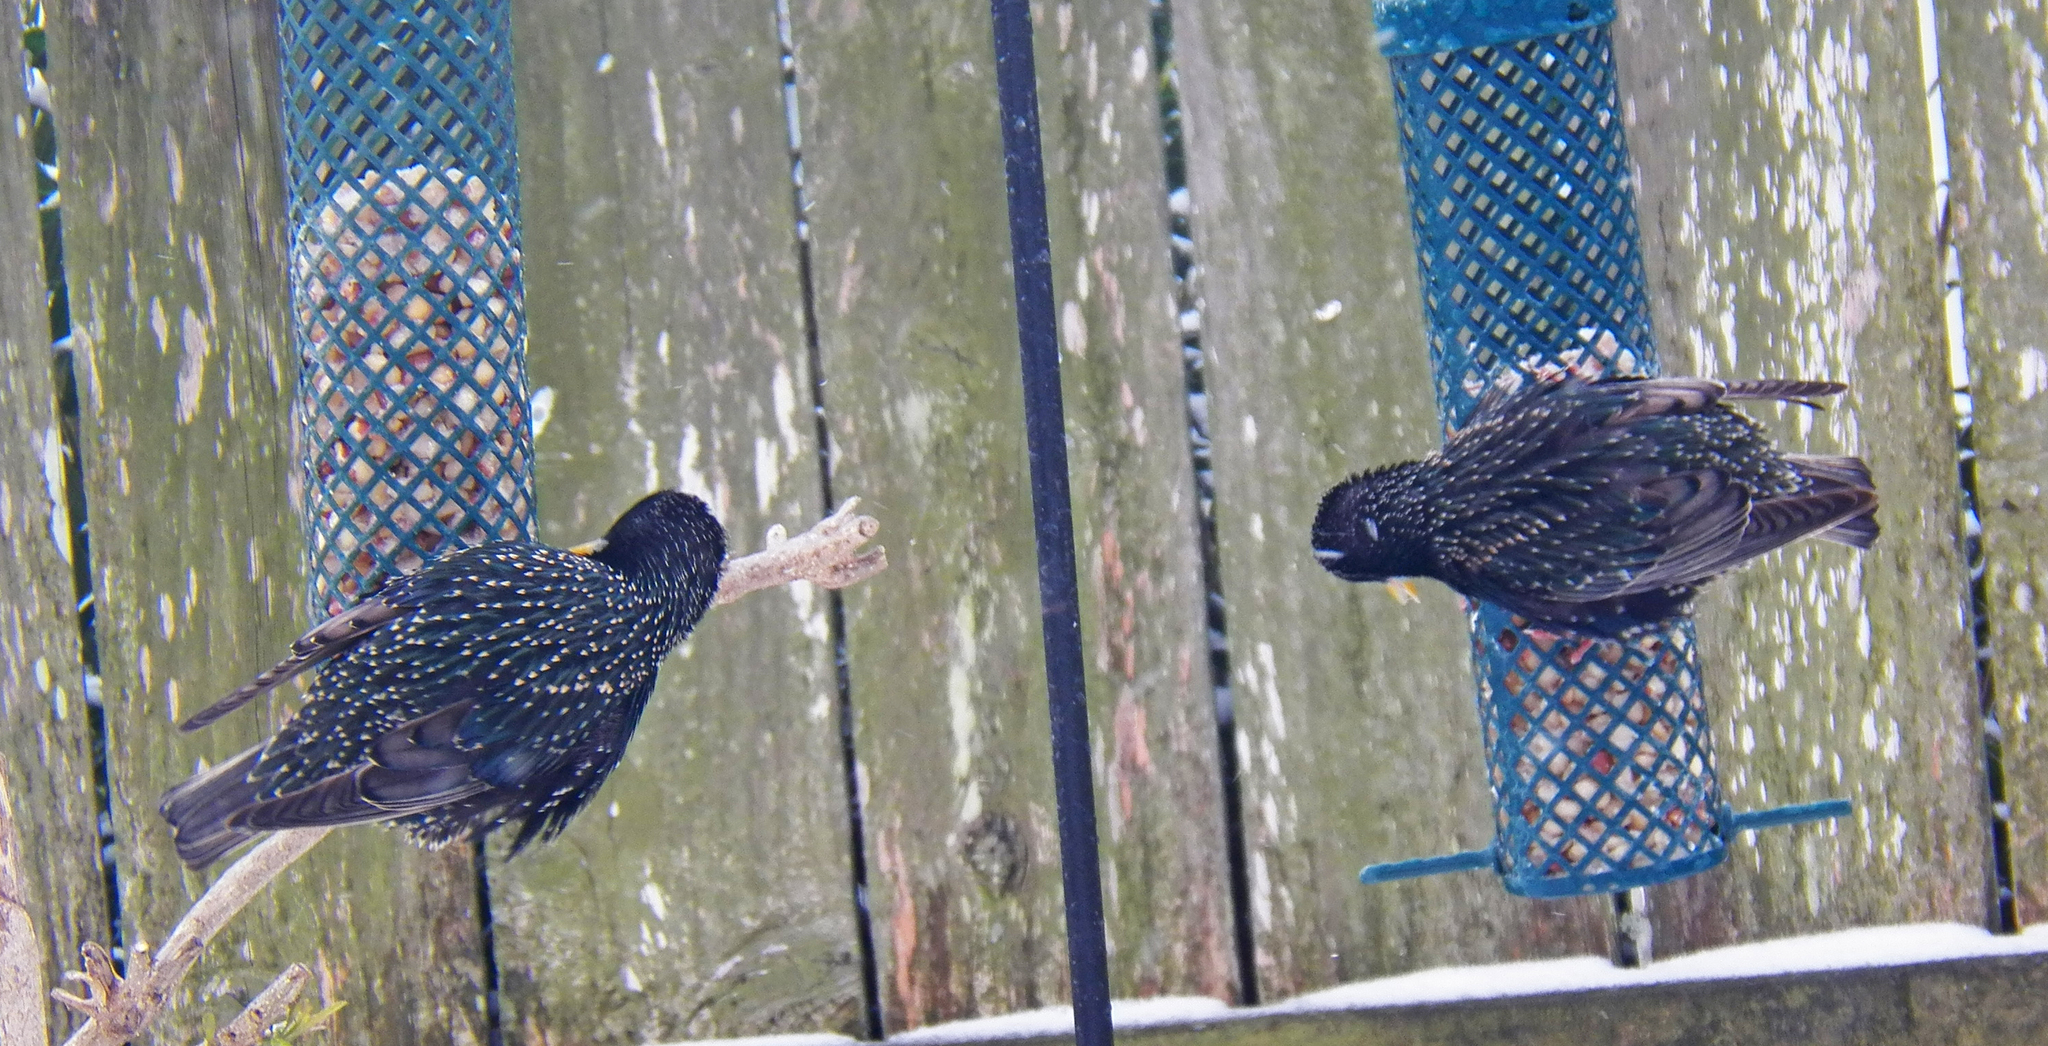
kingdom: Animalia
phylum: Chordata
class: Aves
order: Passeriformes
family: Sturnidae
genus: Sturnus
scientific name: Sturnus vulgaris
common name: Common starling
